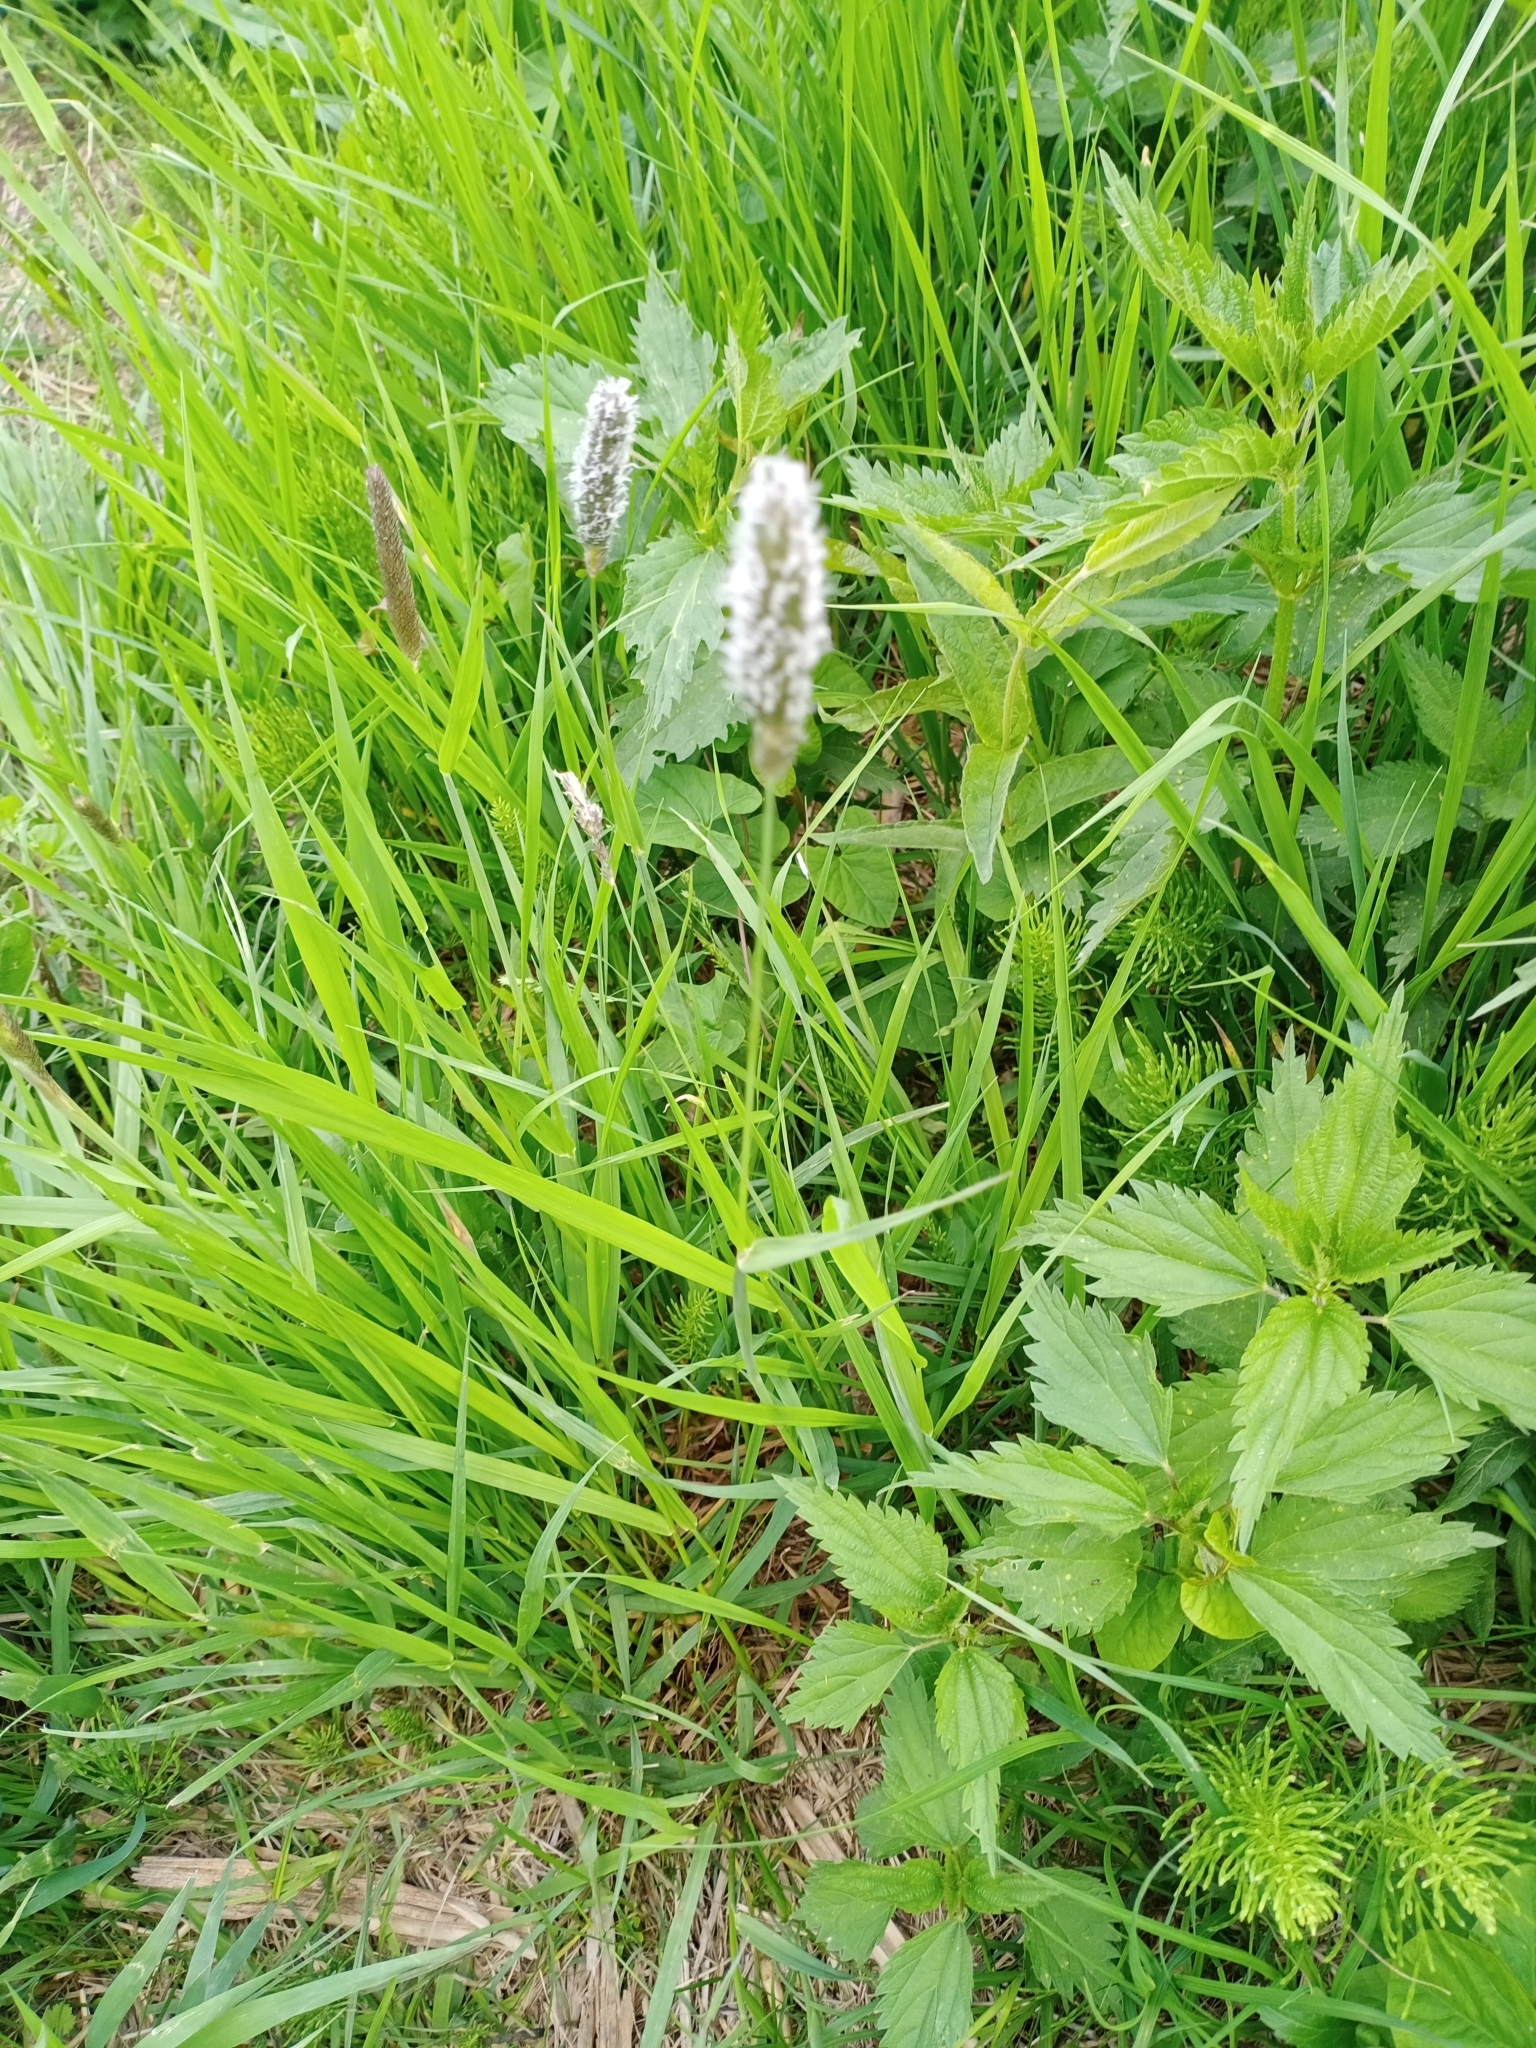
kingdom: Plantae
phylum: Tracheophyta
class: Liliopsida
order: Poales
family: Poaceae
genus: Alopecurus
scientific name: Alopecurus pratensis
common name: Meadow foxtail
